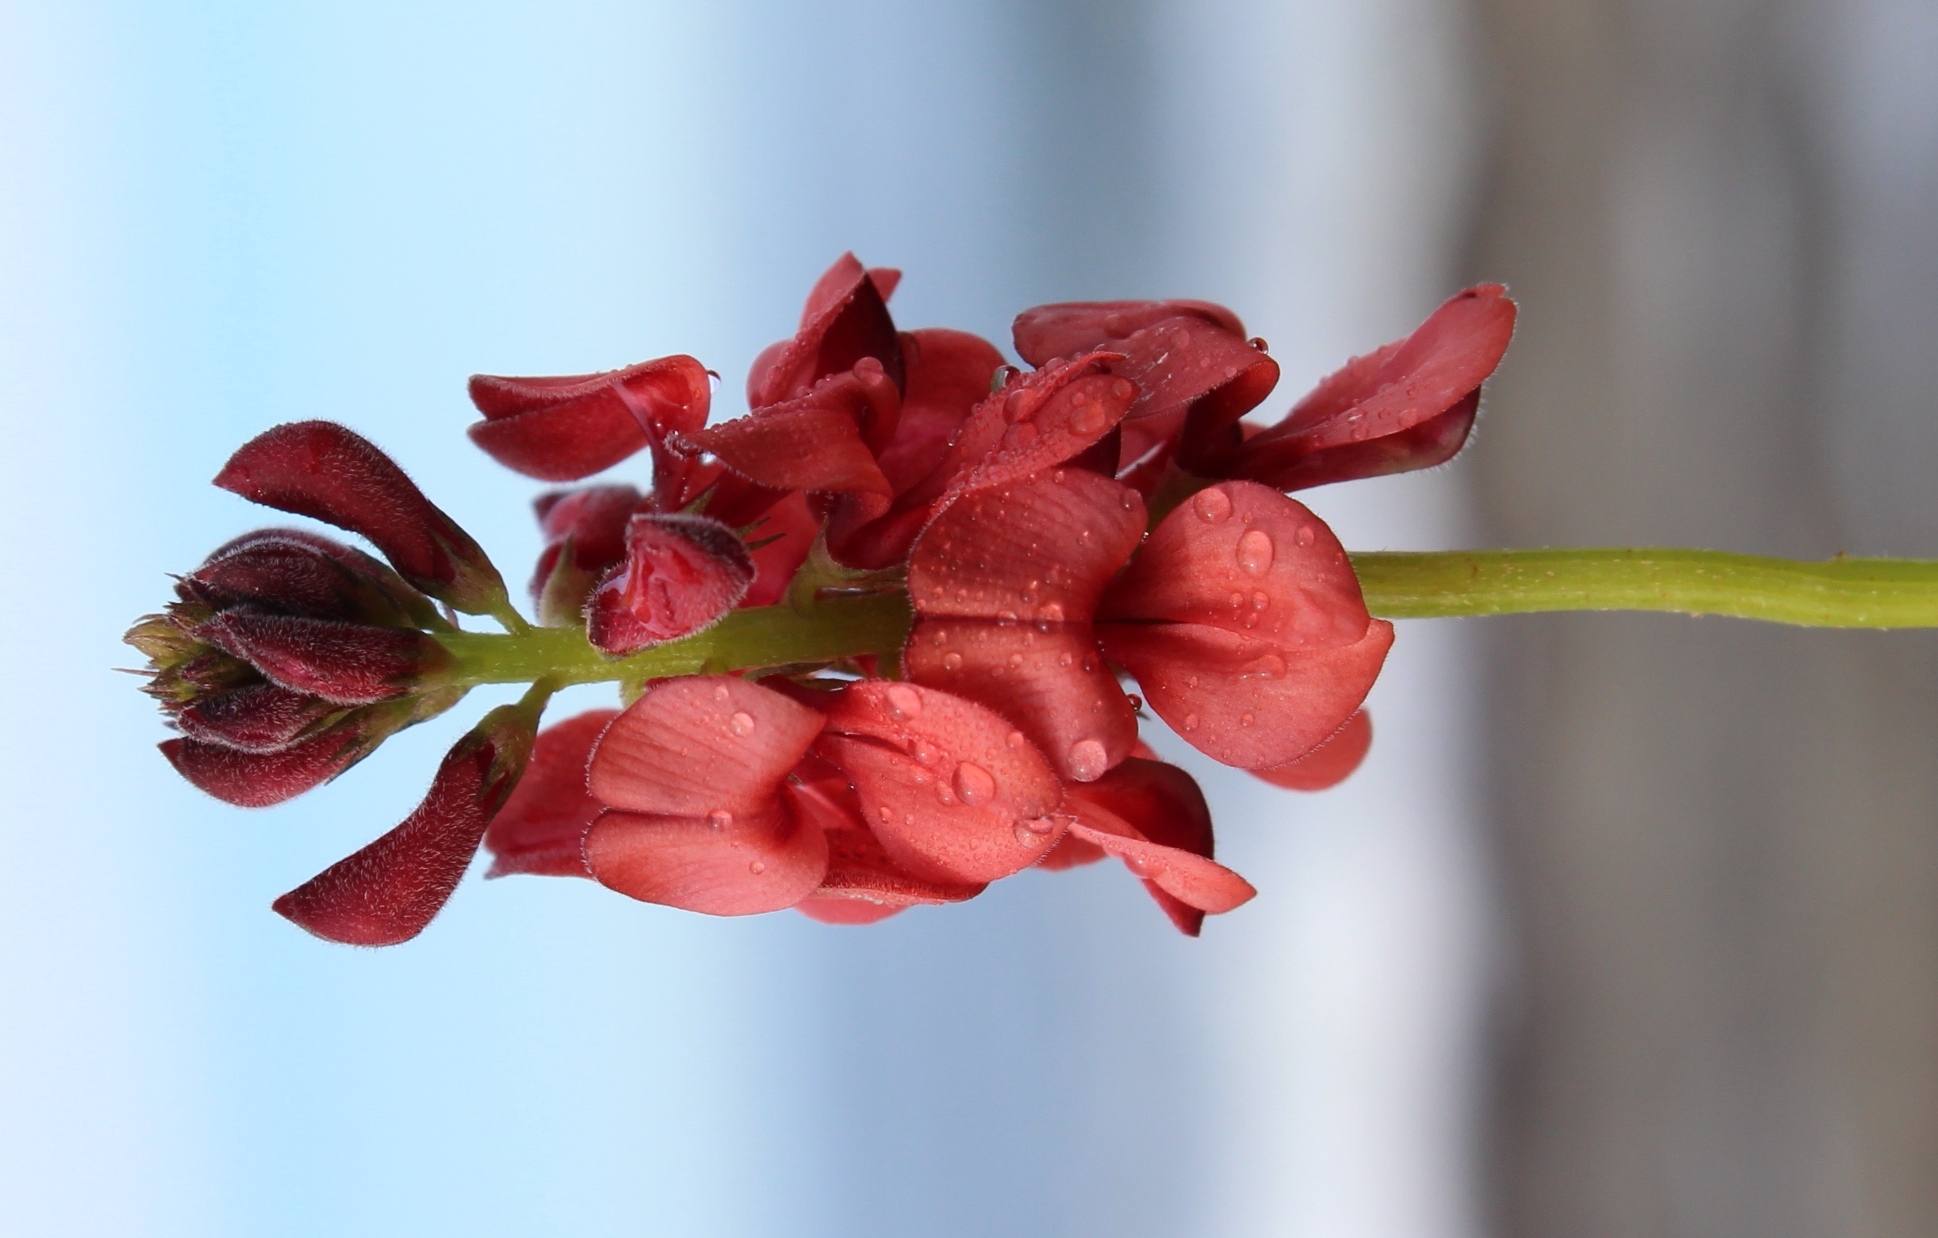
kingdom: Plantae
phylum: Tracheophyta
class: Magnoliopsida
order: Fabales
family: Fabaceae
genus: Indigofera
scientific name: Indigofera heterophylla
